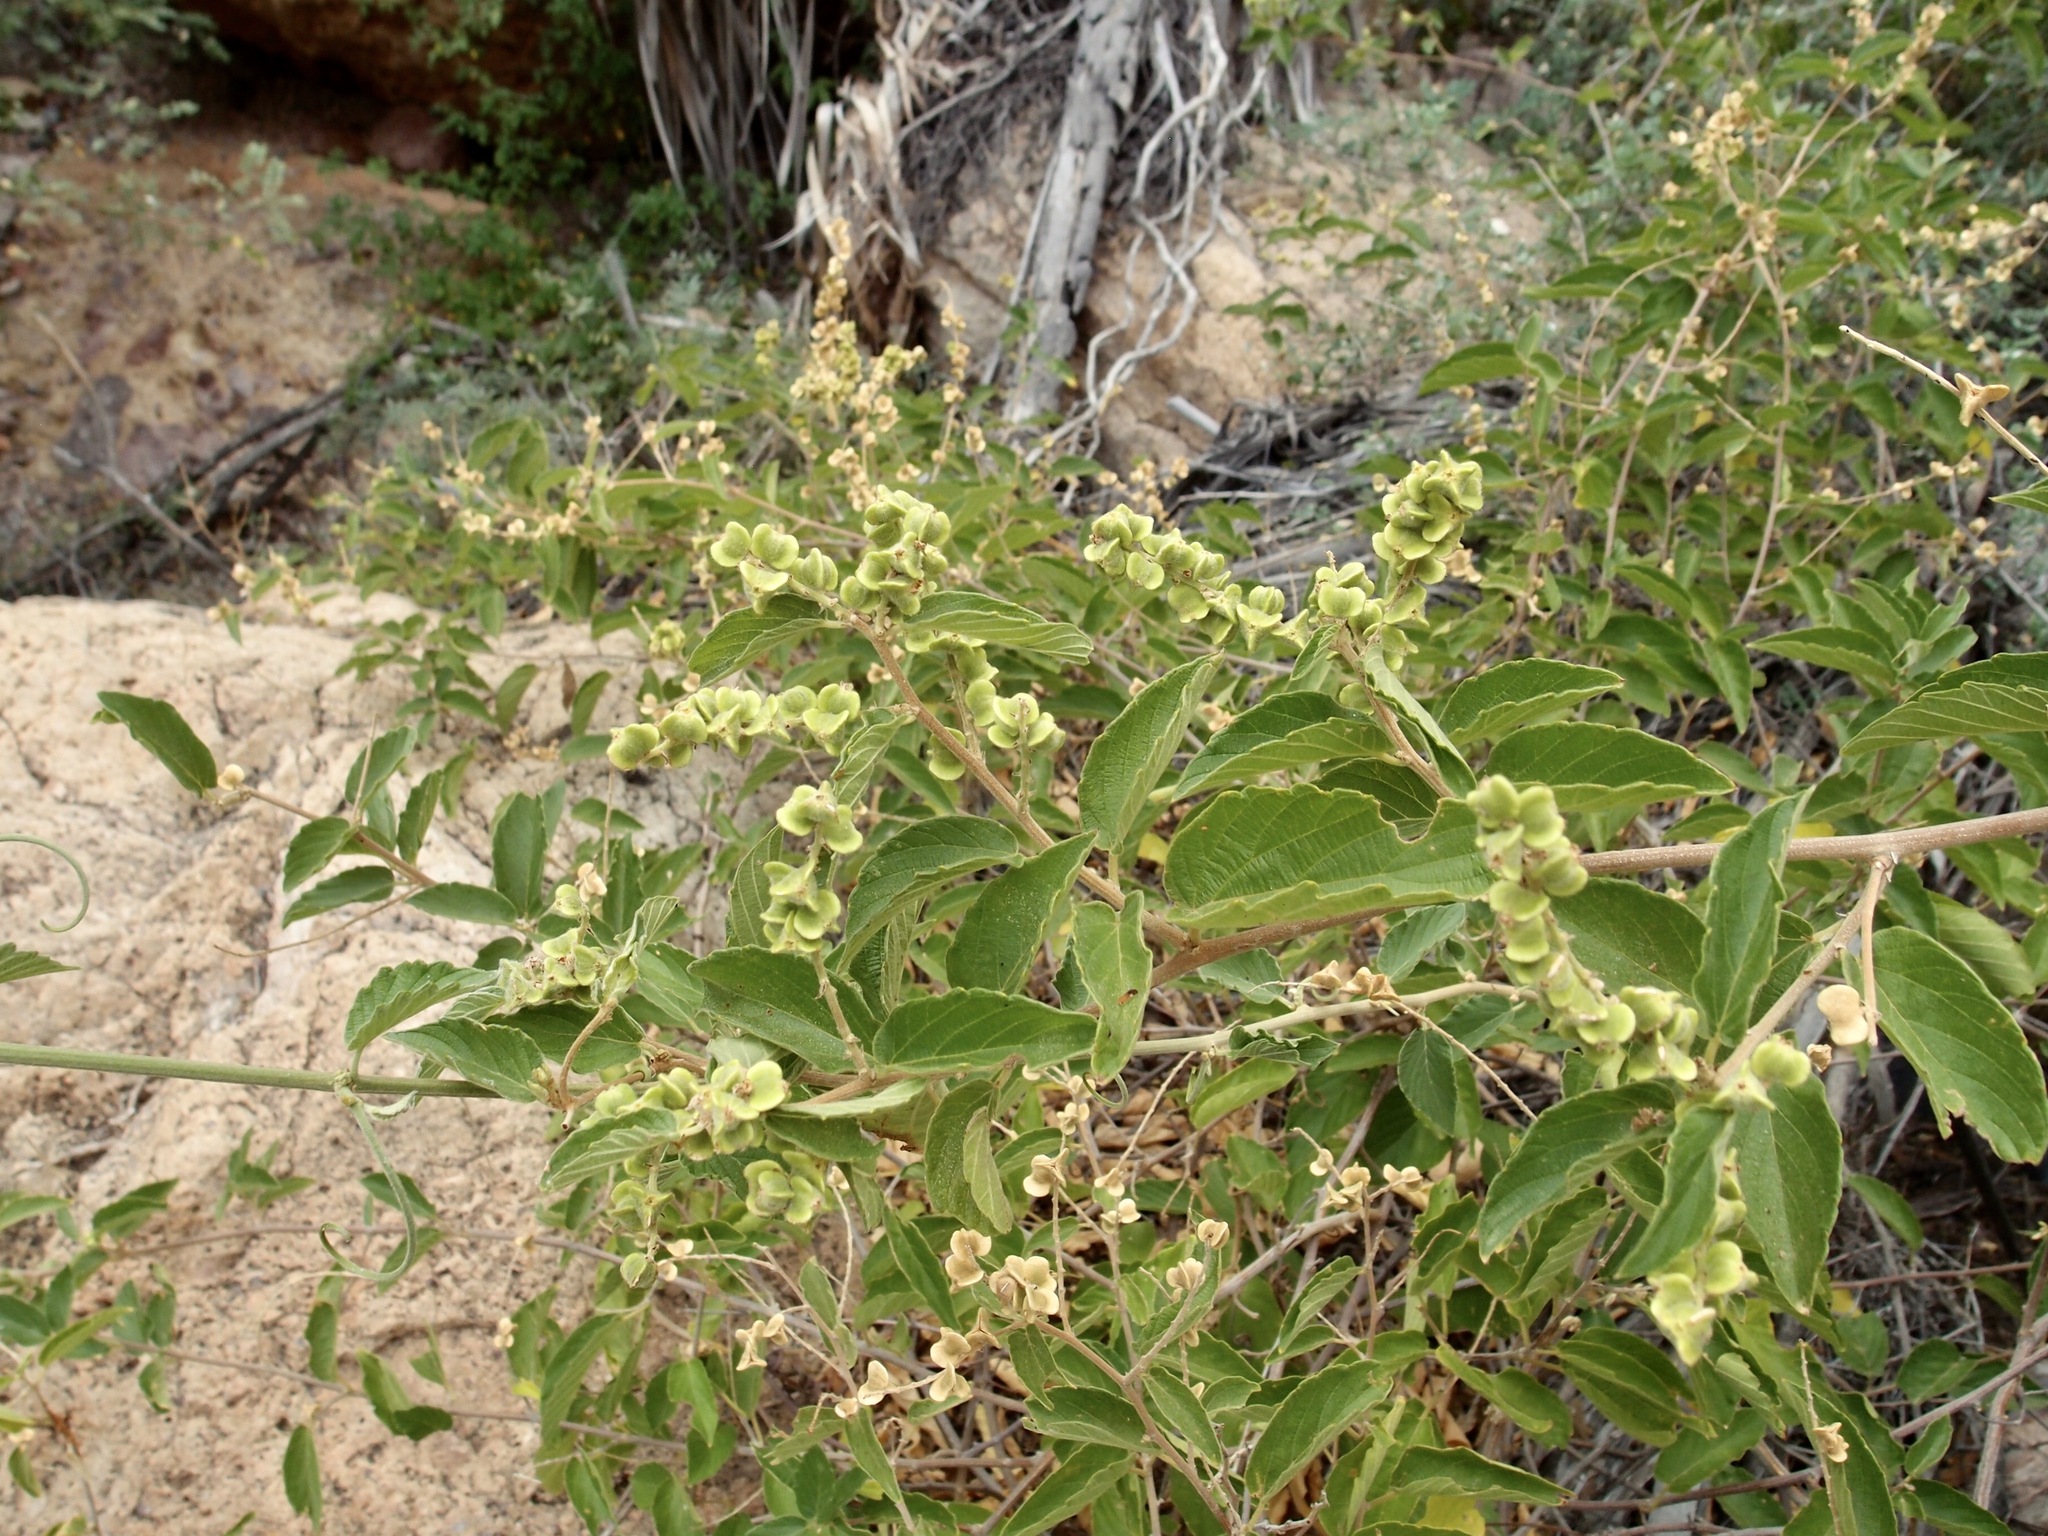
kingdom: Plantae
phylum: Tracheophyta
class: Magnoliopsida
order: Rosales
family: Rhamnaceae
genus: Gouania
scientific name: Gouania rosei
